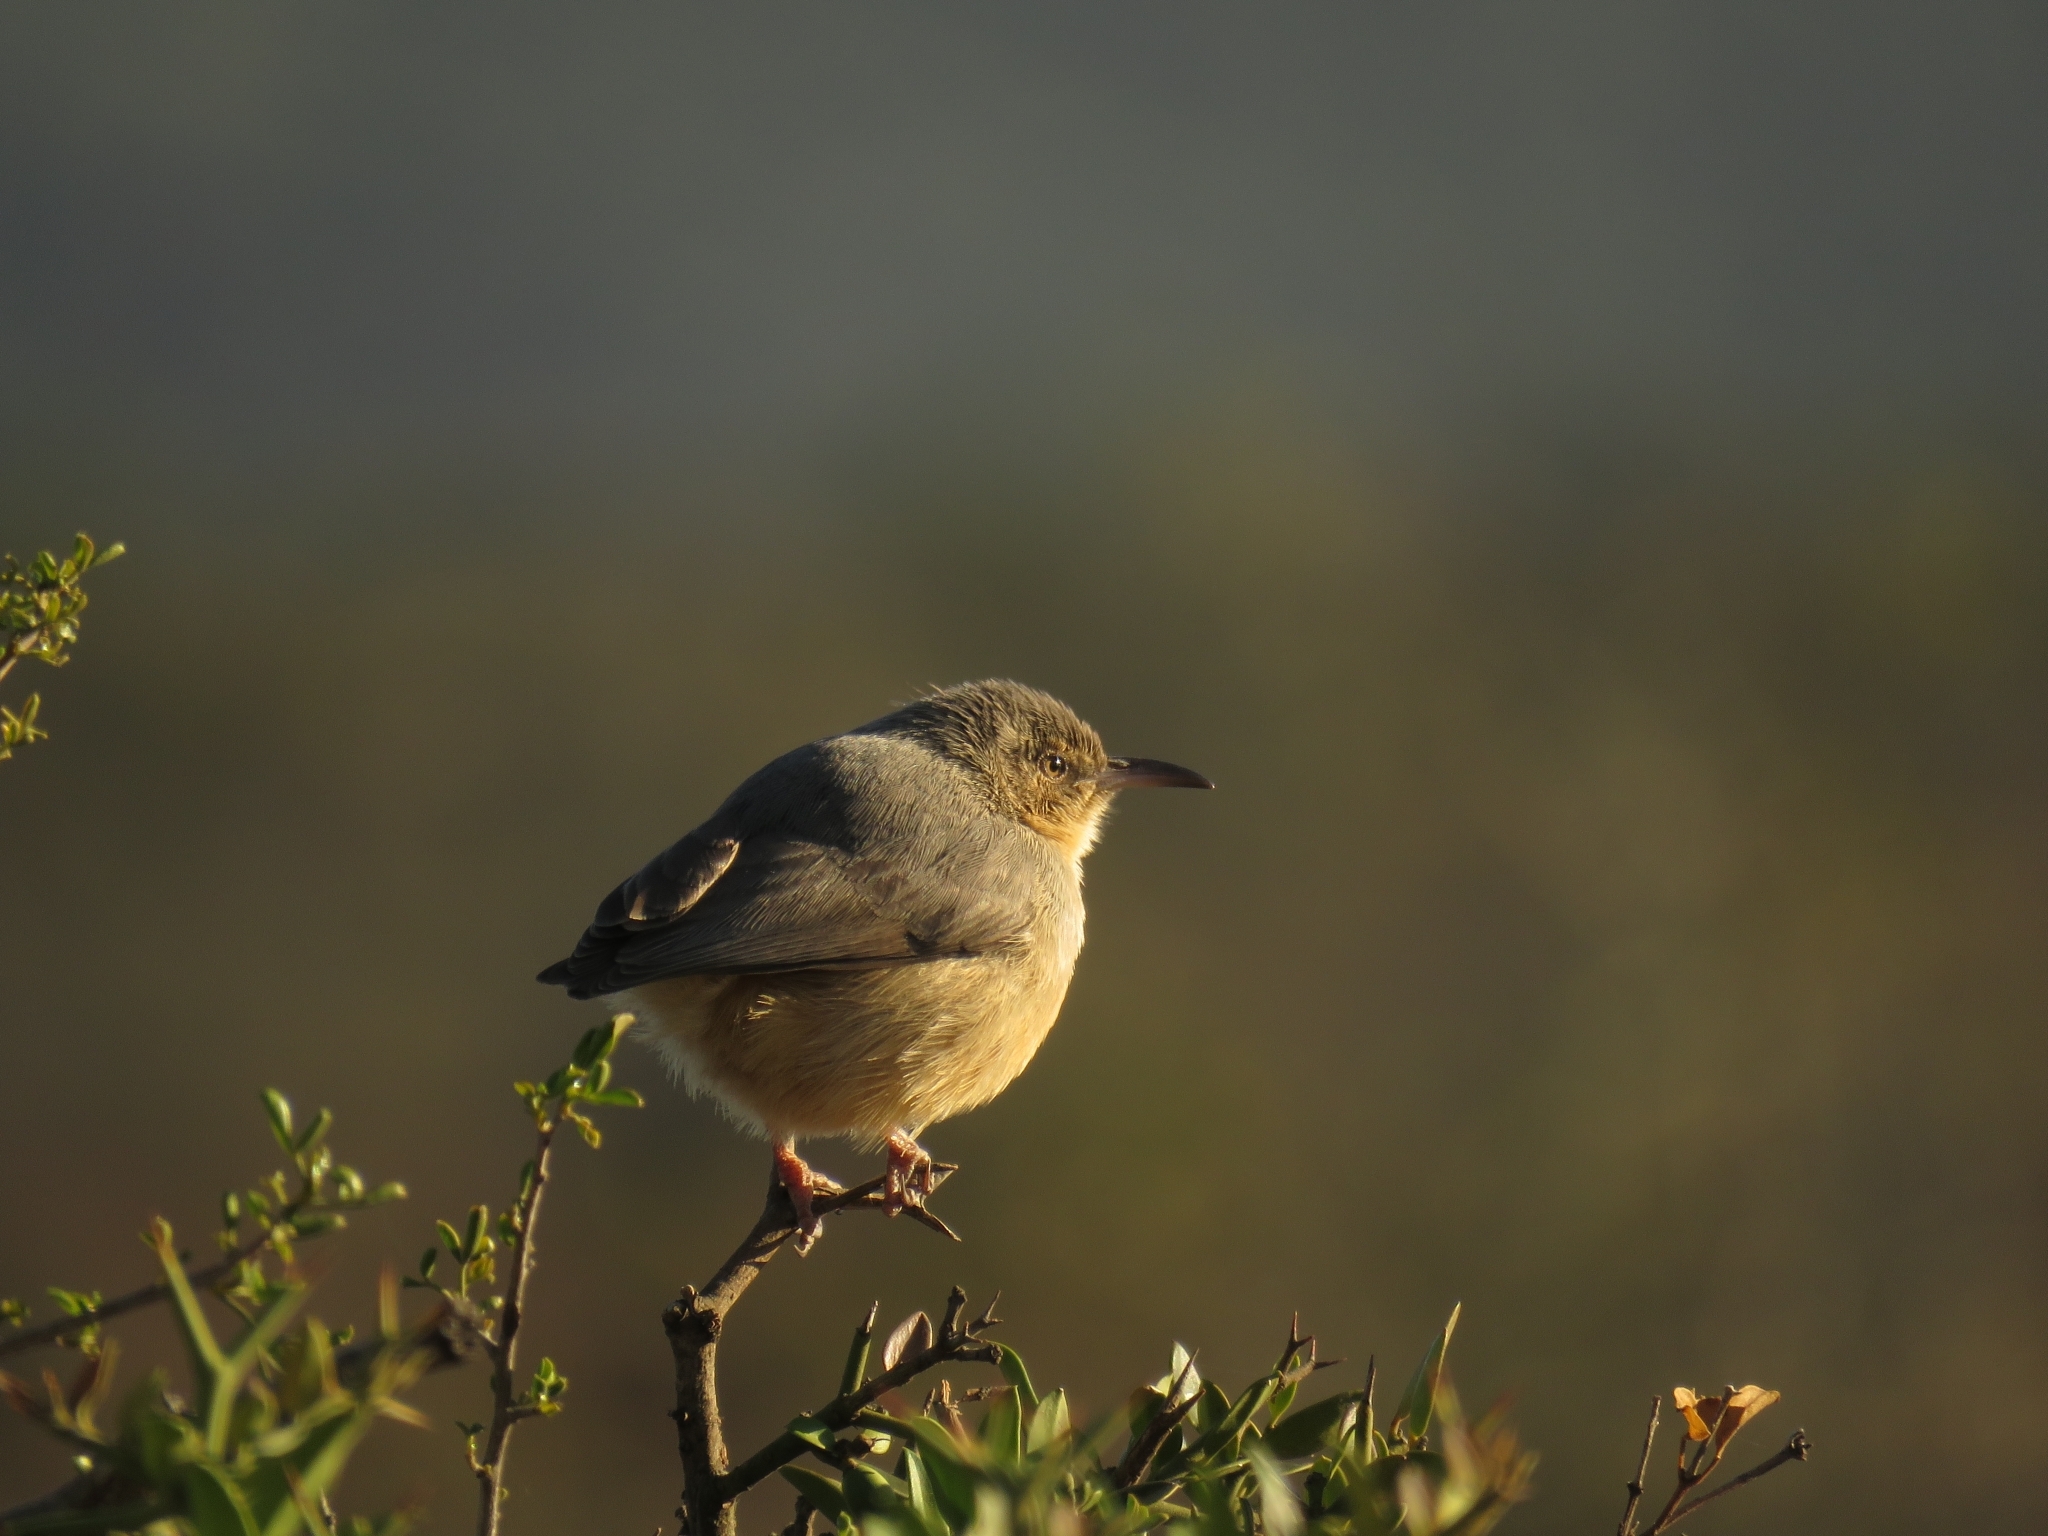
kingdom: Animalia
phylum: Chordata
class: Aves
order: Passeriformes
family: Macrosphenidae
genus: Sylvietta
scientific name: Sylvietta rufescens
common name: Long-billed crombec
